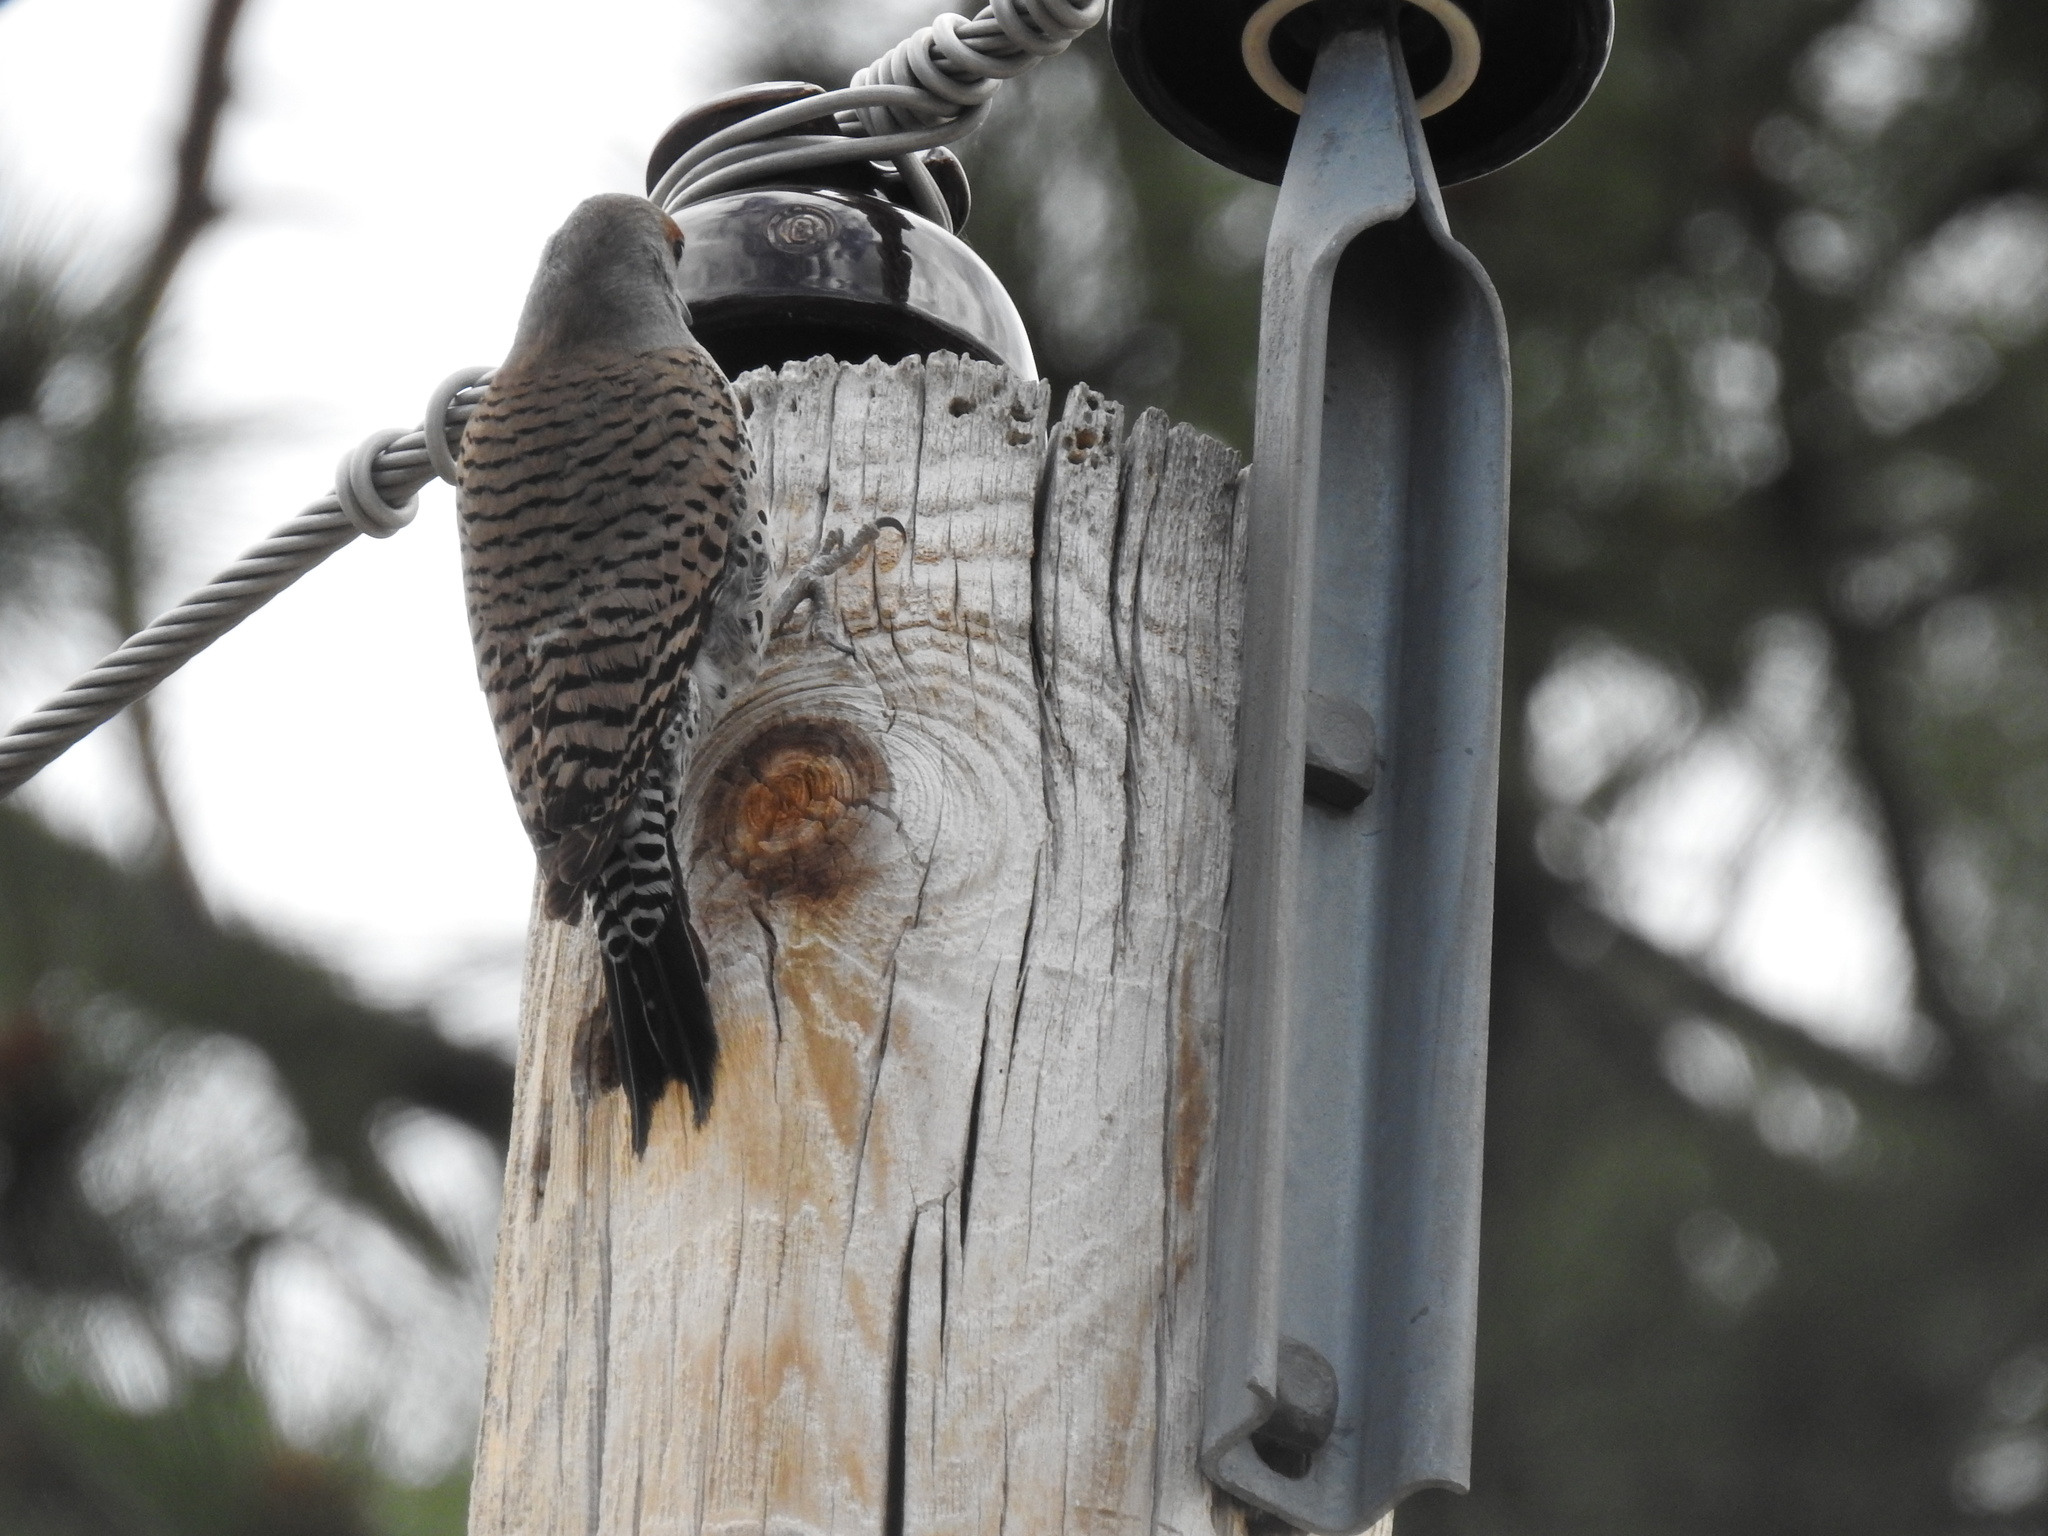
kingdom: Animalia
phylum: Chordata
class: Aves
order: Piciformes
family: Picidae
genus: Colaptes
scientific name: Colaptes auratus
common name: Northern flicker
